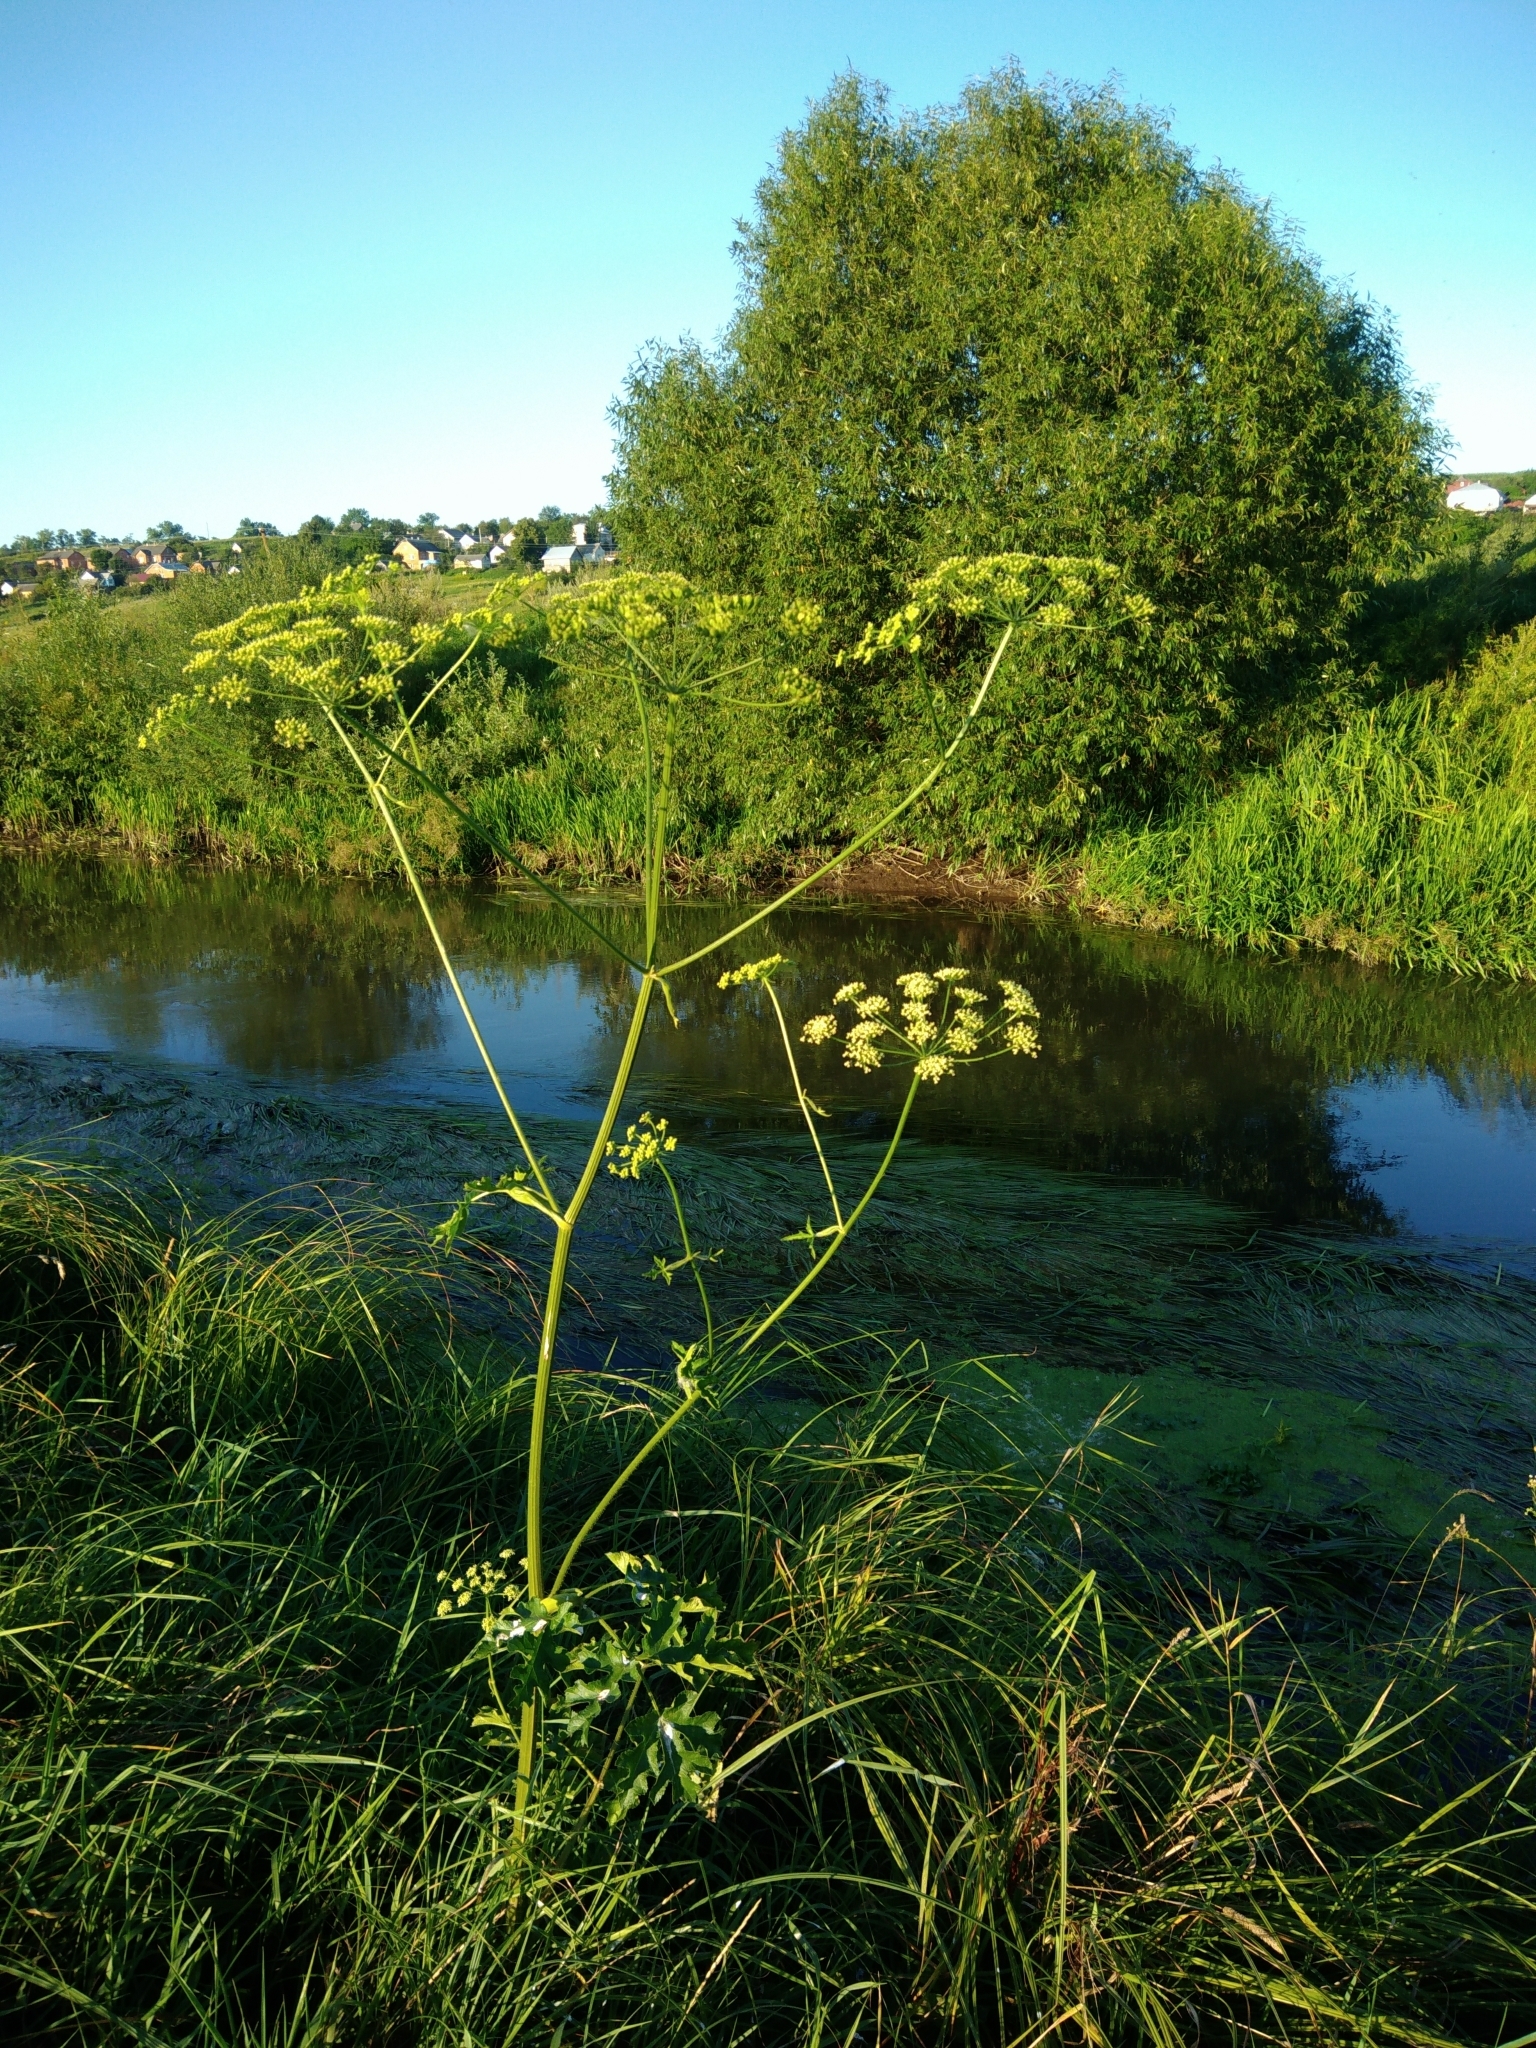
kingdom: Plantae
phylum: Tracheophyta
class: Magnoliopsida
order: Apiales
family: Apiaceae
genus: Heracleum
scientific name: Heracleum sphondylium
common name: Hogweed
